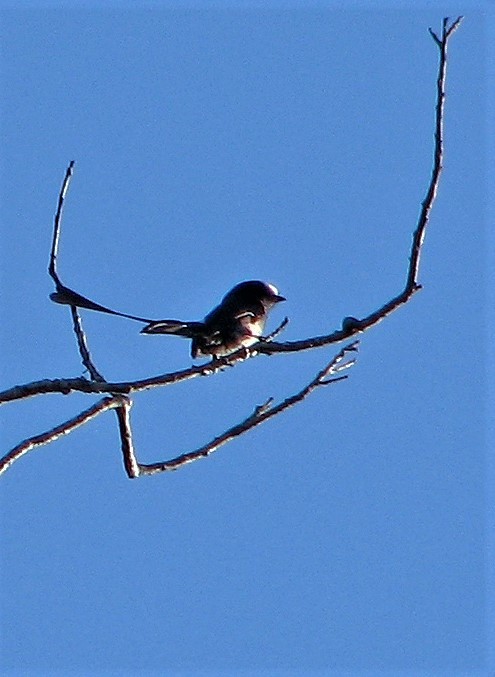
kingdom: Animalia
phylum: Chordata
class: Aves
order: Passeriformes
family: Tyrannidae
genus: Colonia
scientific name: Colonia colonus
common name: Long-tailed tyrant
